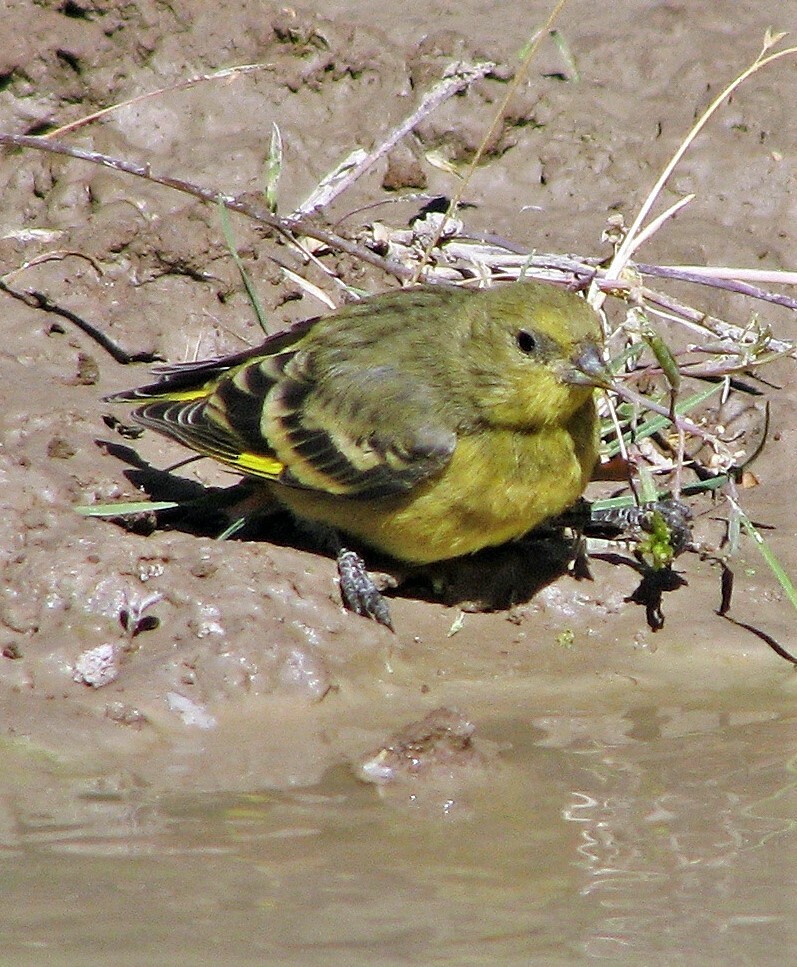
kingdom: Animalia
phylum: Chordata
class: Aves
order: Passeriformes
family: Fringillidae
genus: Spinus
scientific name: Spinus uropygialis
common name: Yellow-rumped siskin
